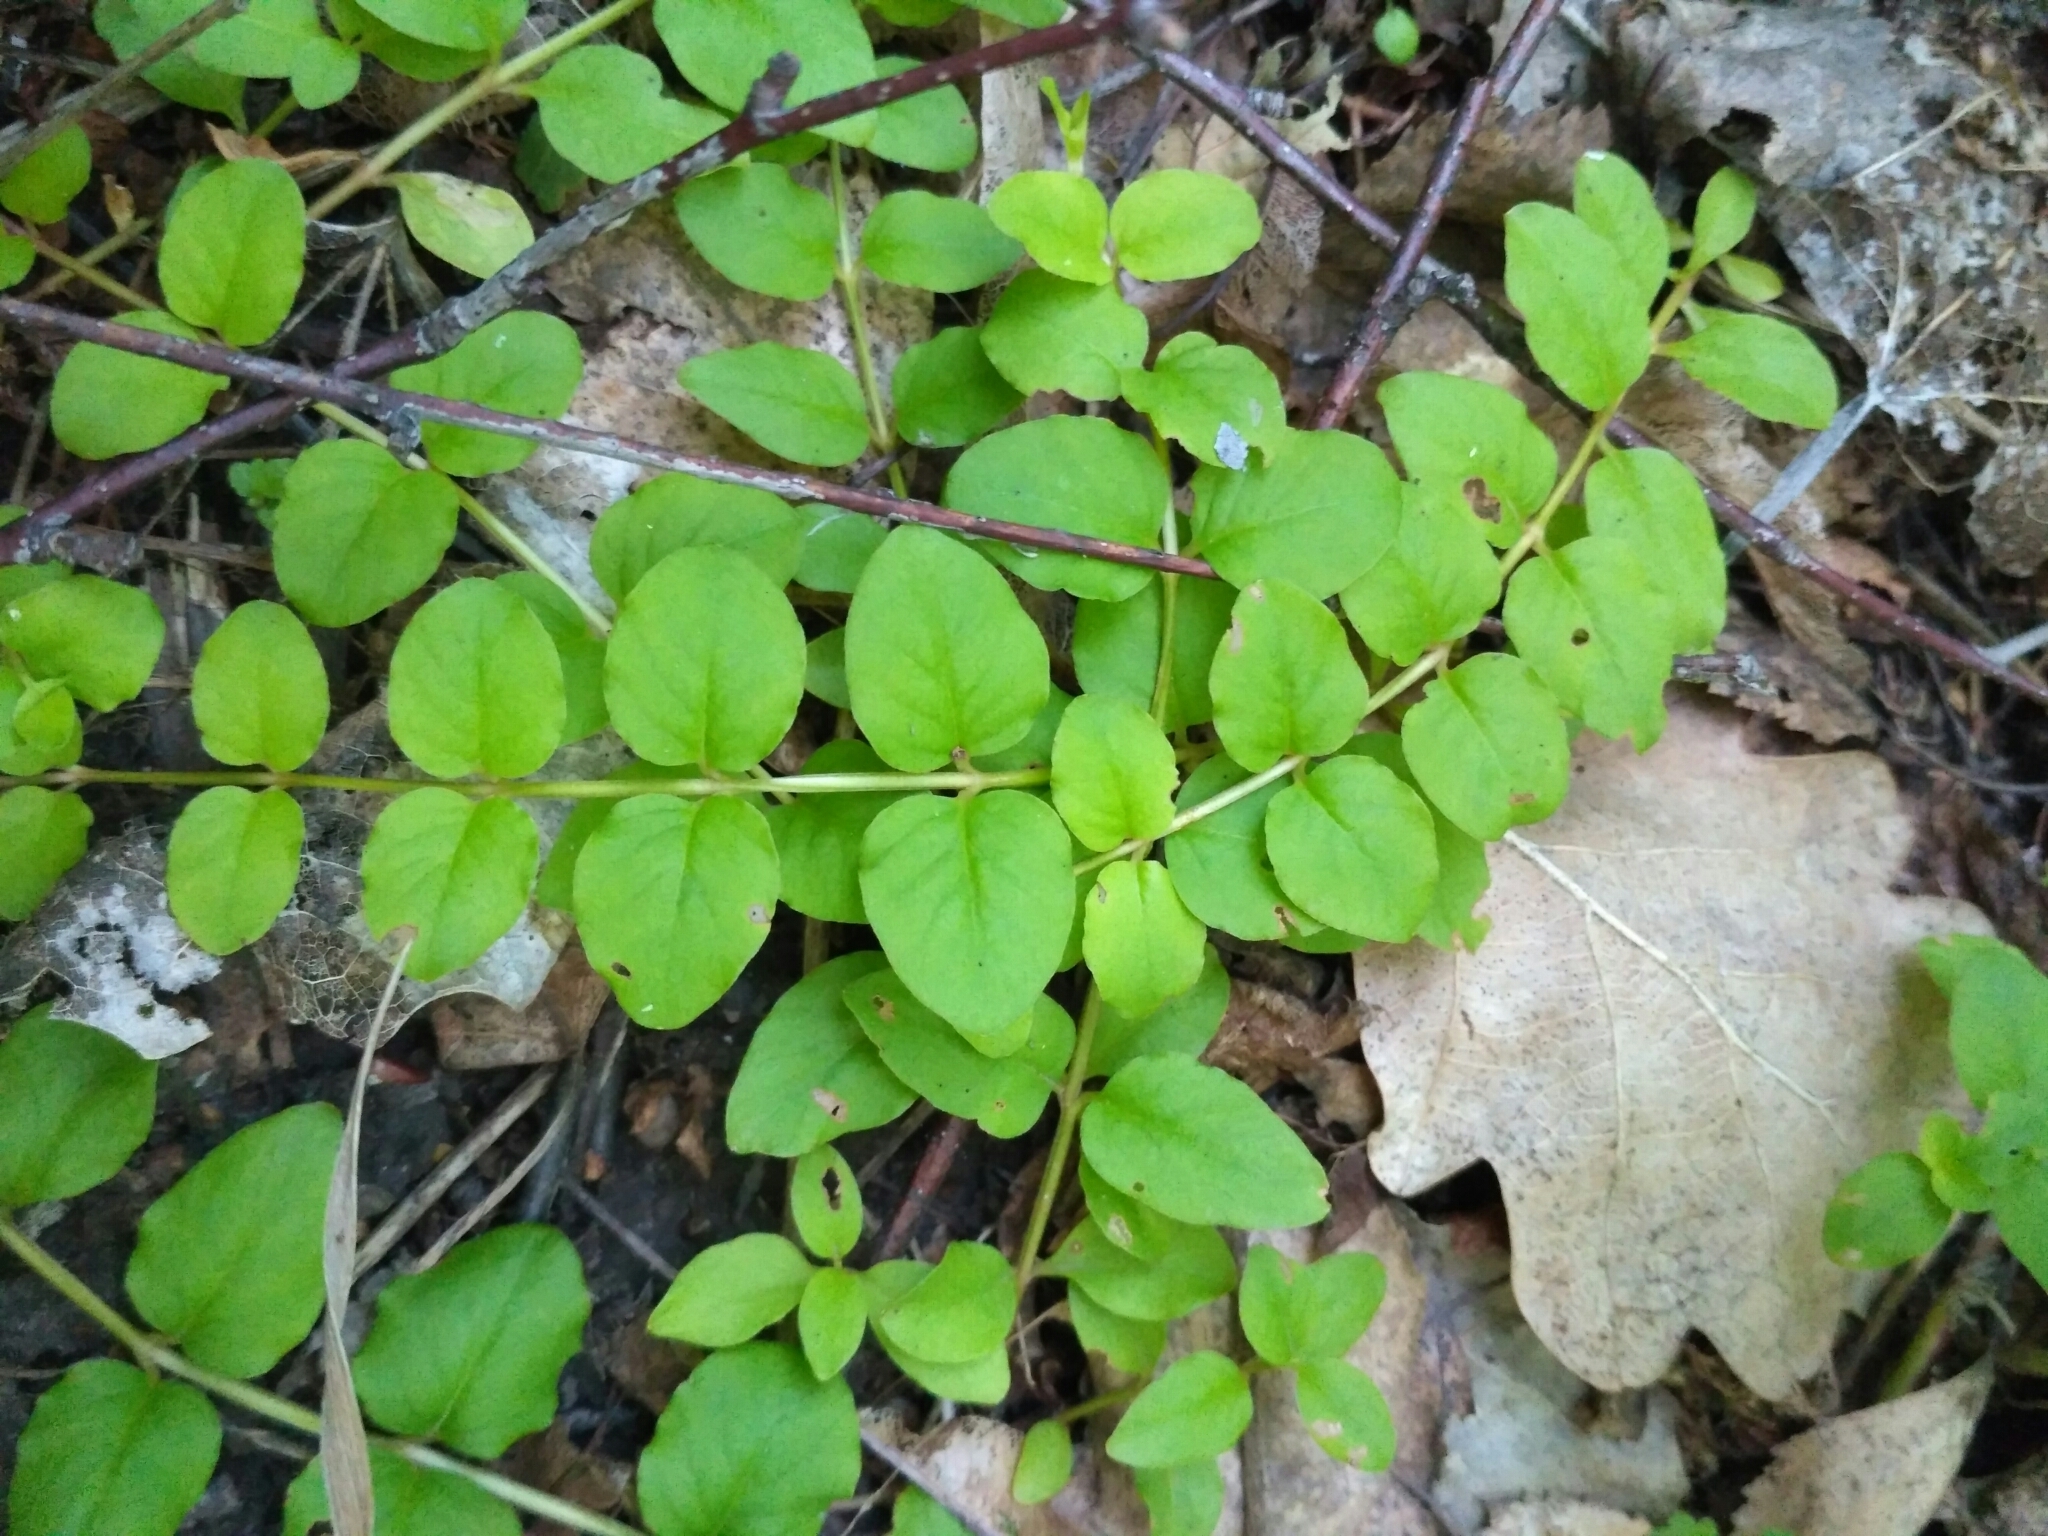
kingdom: Plantae
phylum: Tracheophyta
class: Magnoliopsida
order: Ericales
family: Primulaceae
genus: Lysimachia
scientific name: Lysimachia nummularia
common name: Moneywort
